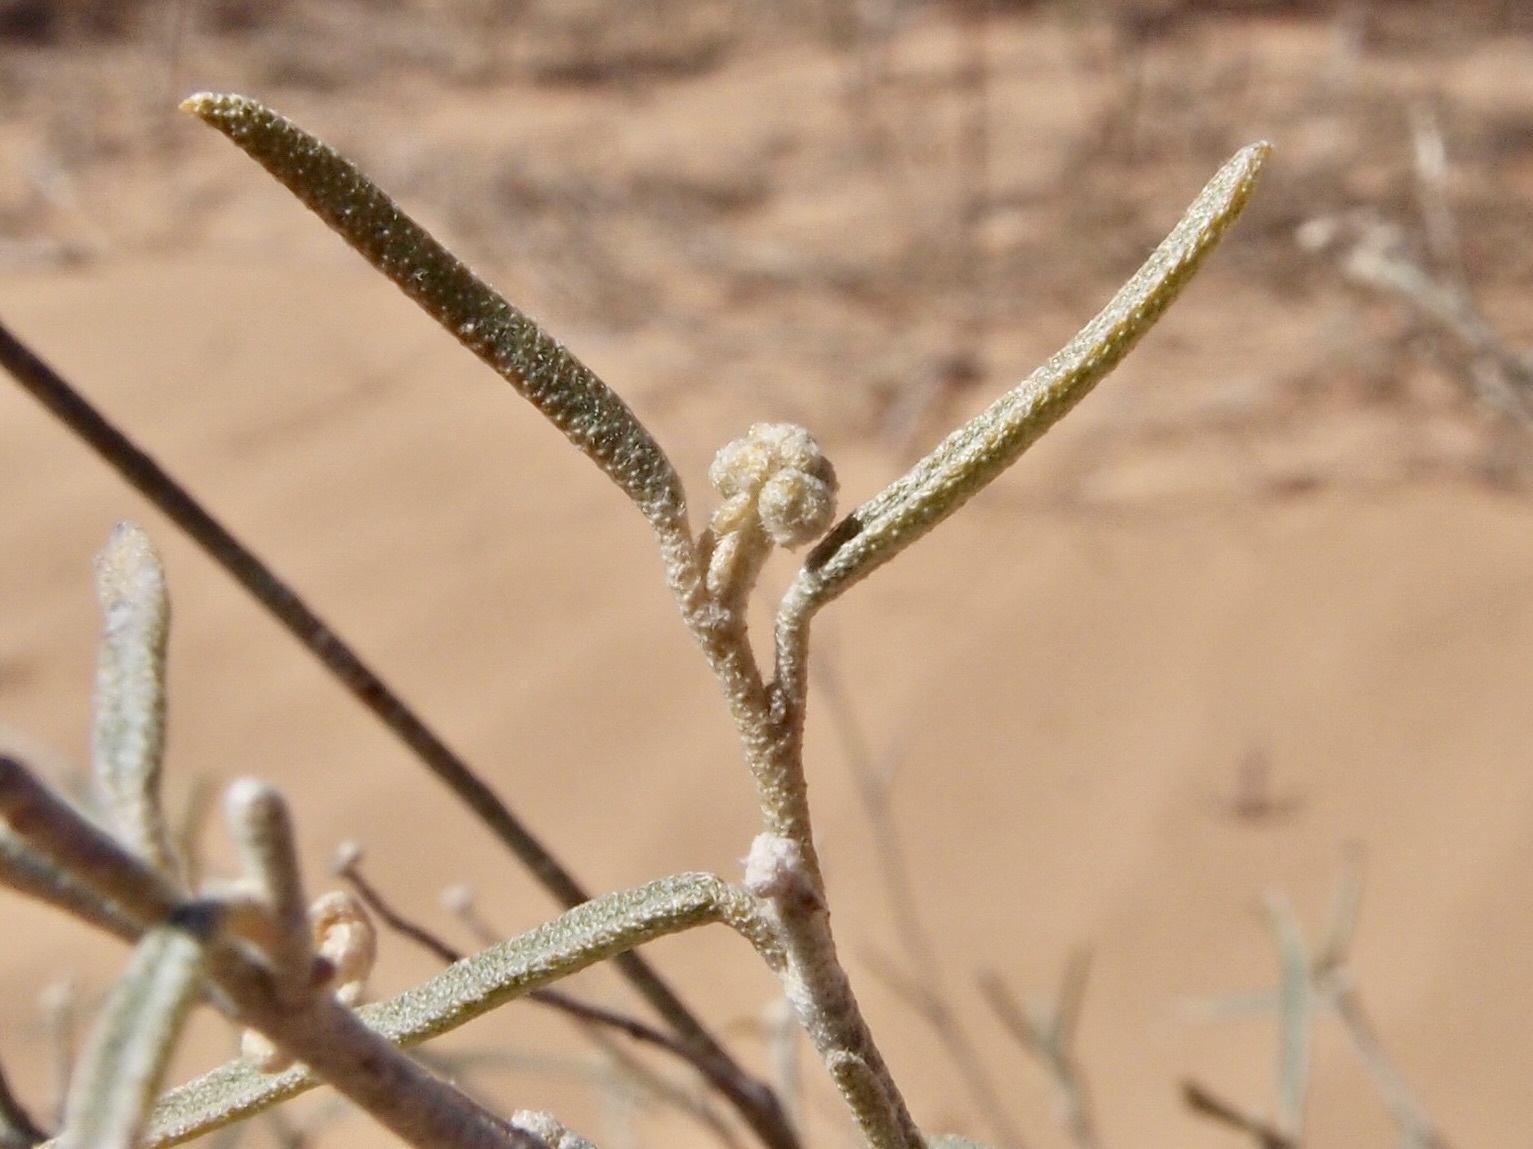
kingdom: Plantae
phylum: Tracheophyta
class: Magnoliopsida
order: Malpighiales
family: Euphorbiaceae
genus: Croton
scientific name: Croton wigginsii
